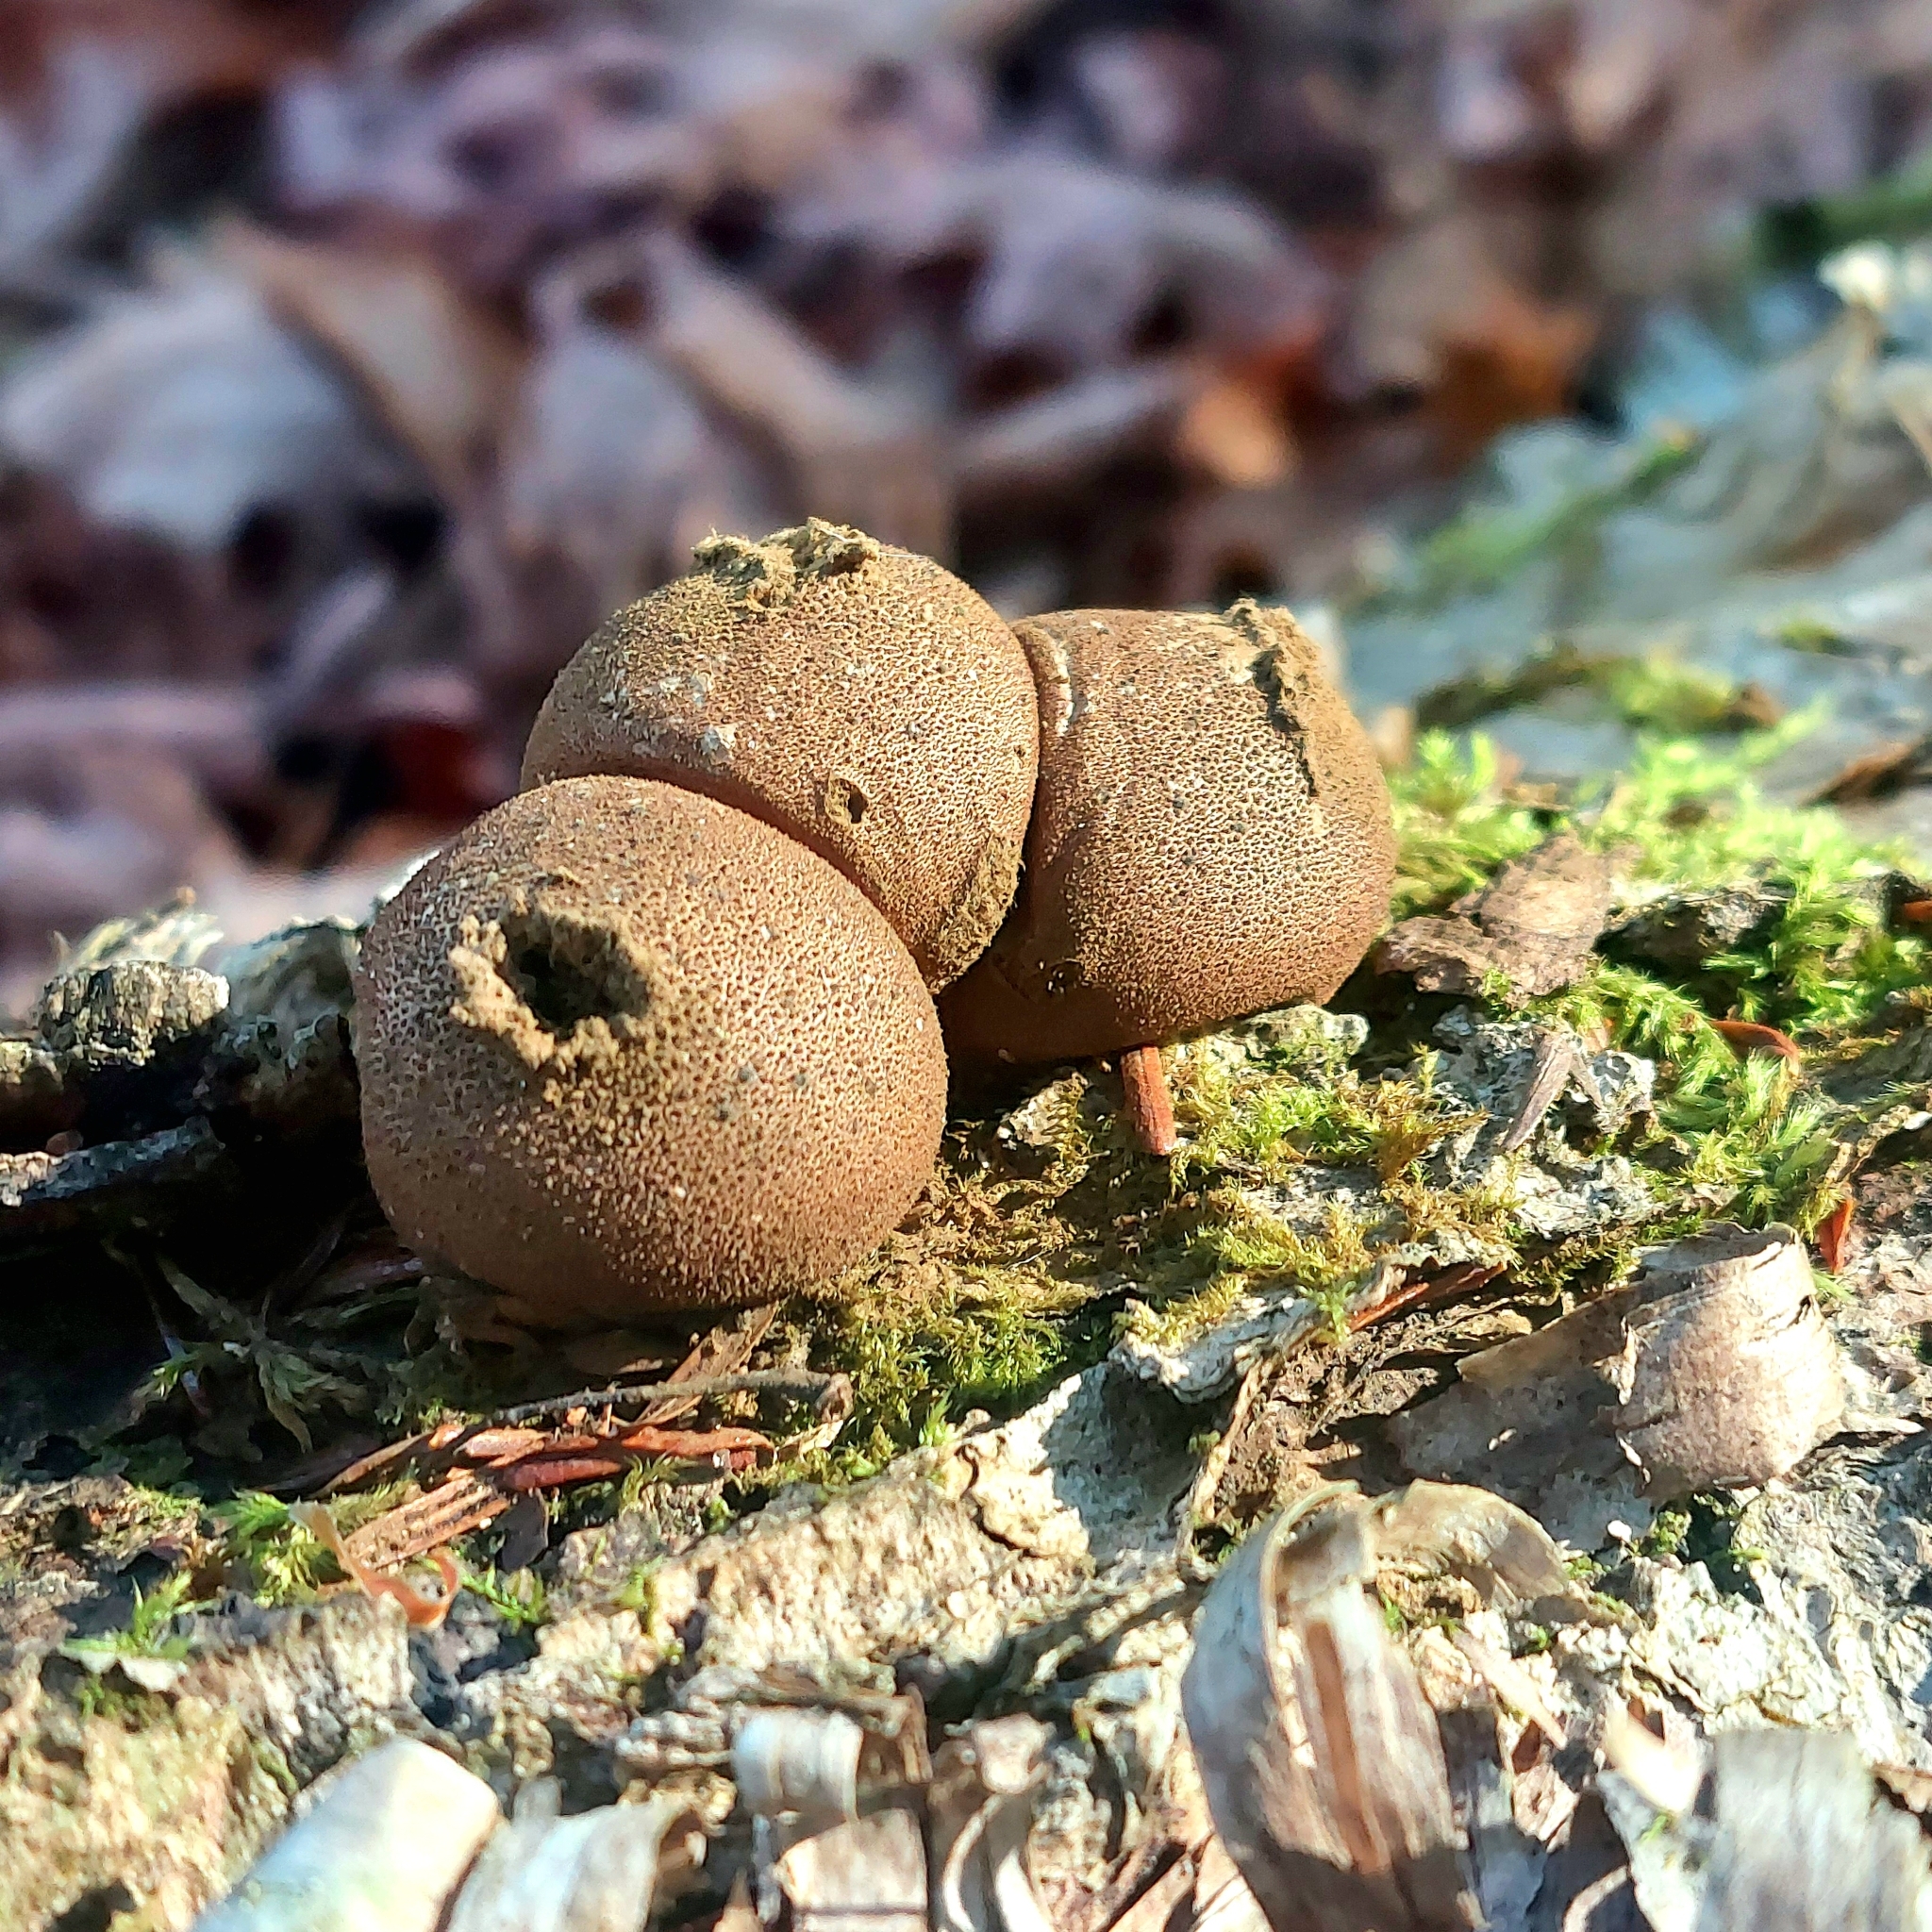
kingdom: Fungi
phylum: Basidiomycota
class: Agaricomycetes
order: Agaricales
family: Lycoperdaceae
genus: Apioperdon
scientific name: Apioperdon pyriforme
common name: Pear-shaped puffball
